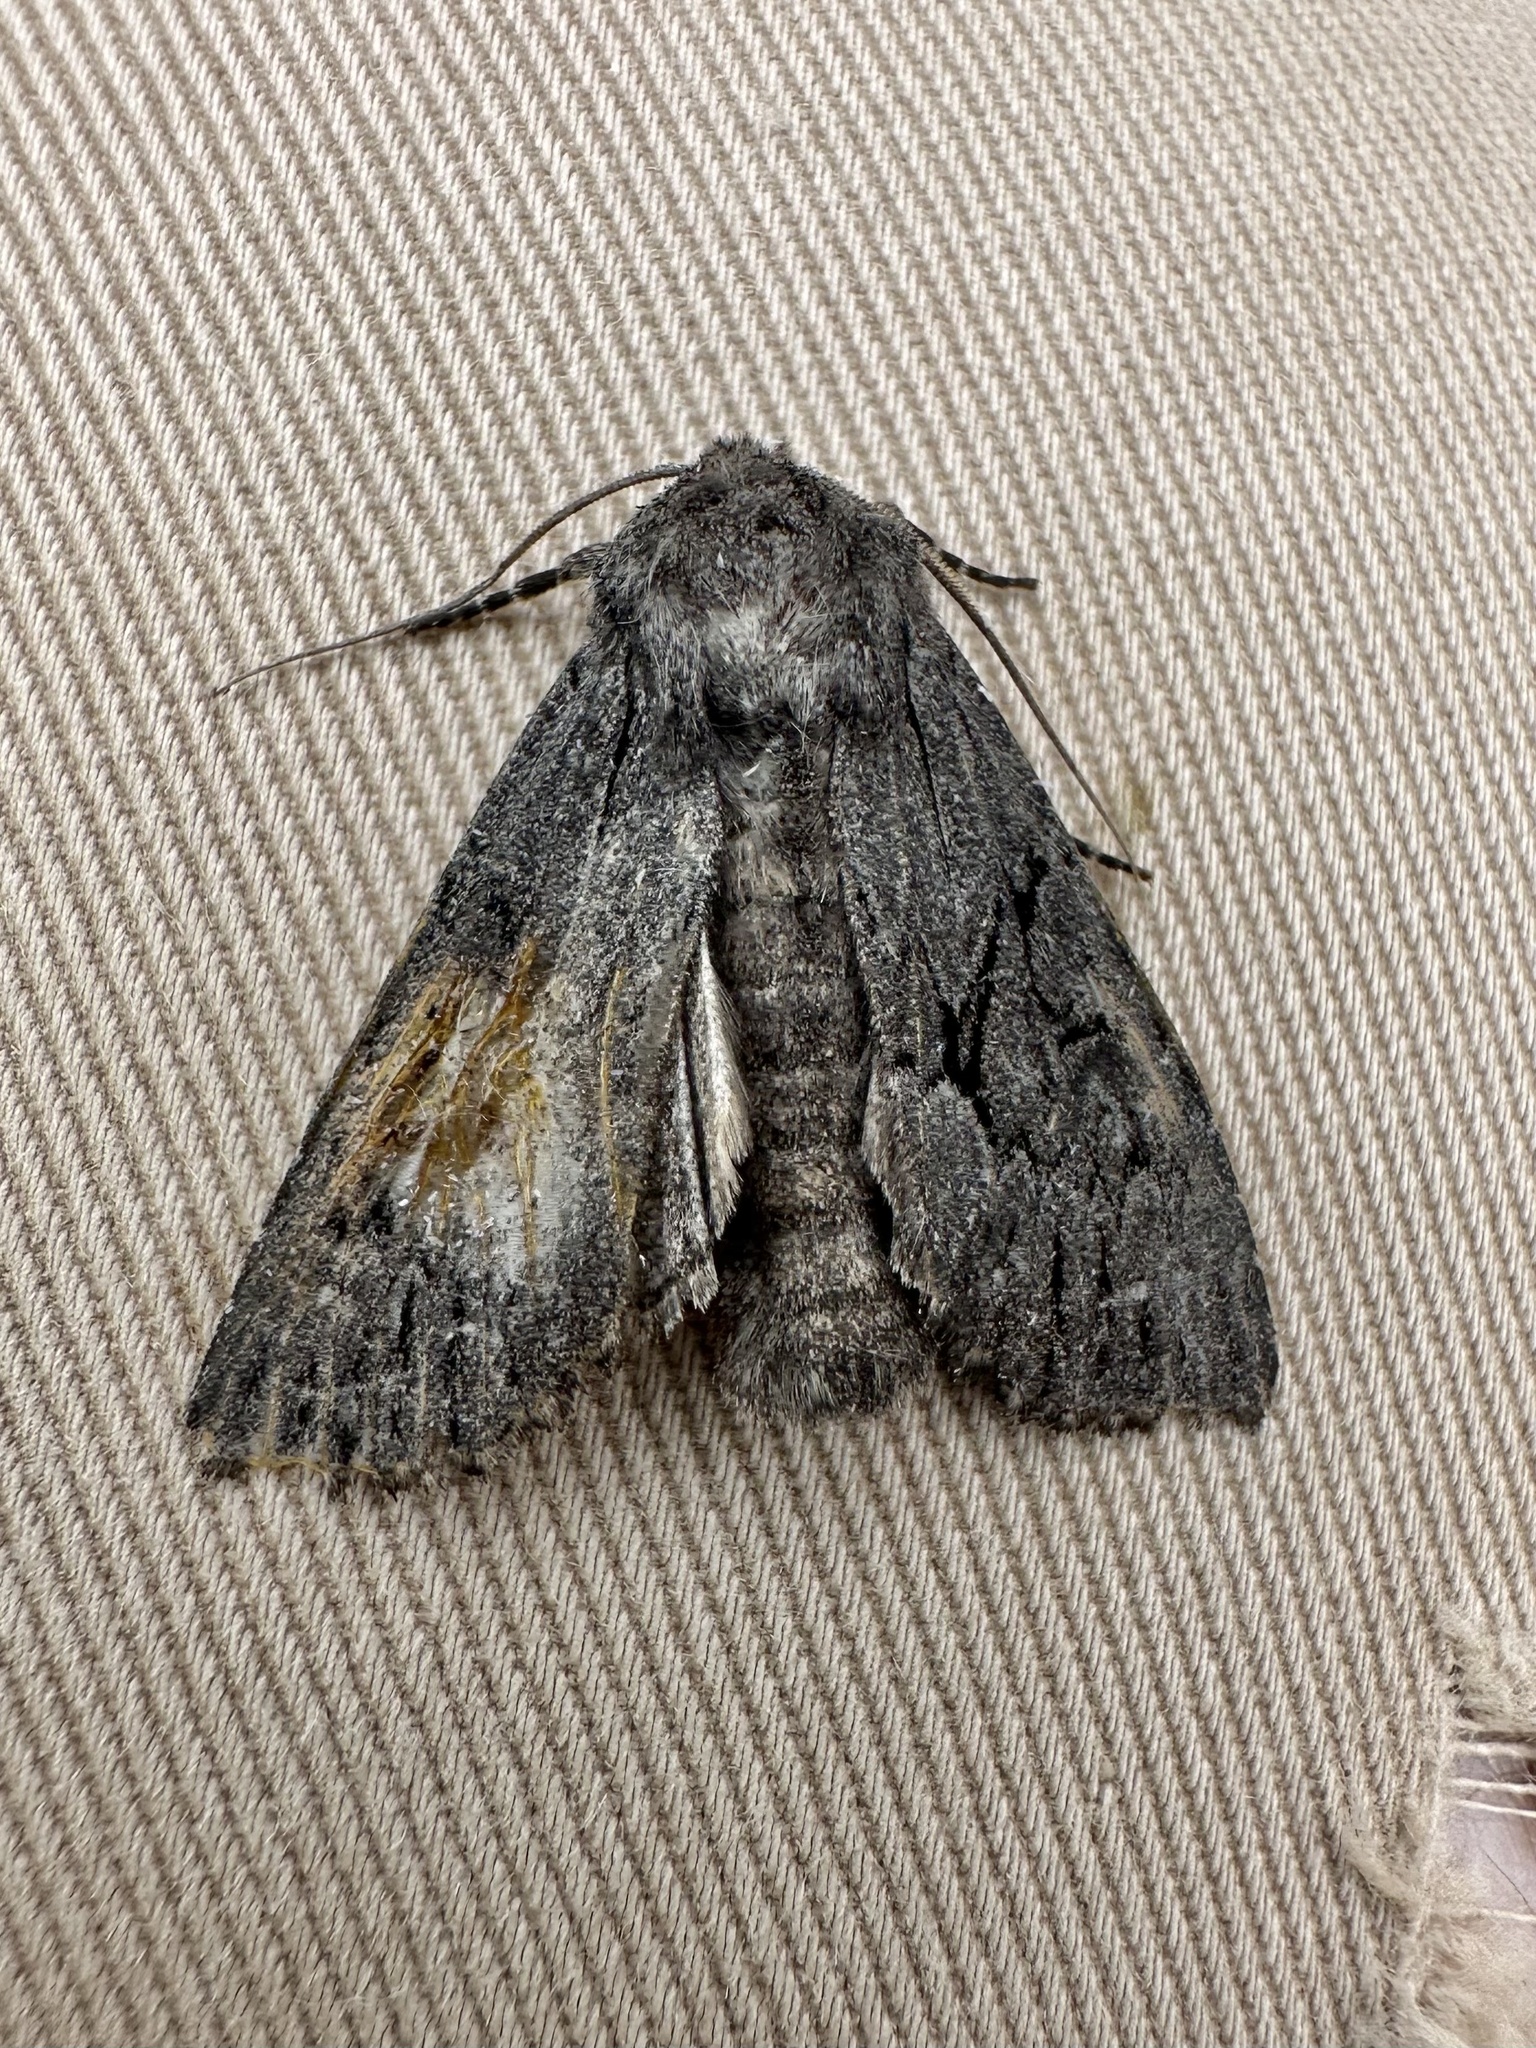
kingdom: Animalia
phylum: Arthropoda
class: Insecta
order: Lepidoptera
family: Noctuidae
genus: Fishia
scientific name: Fishia yosemitae
